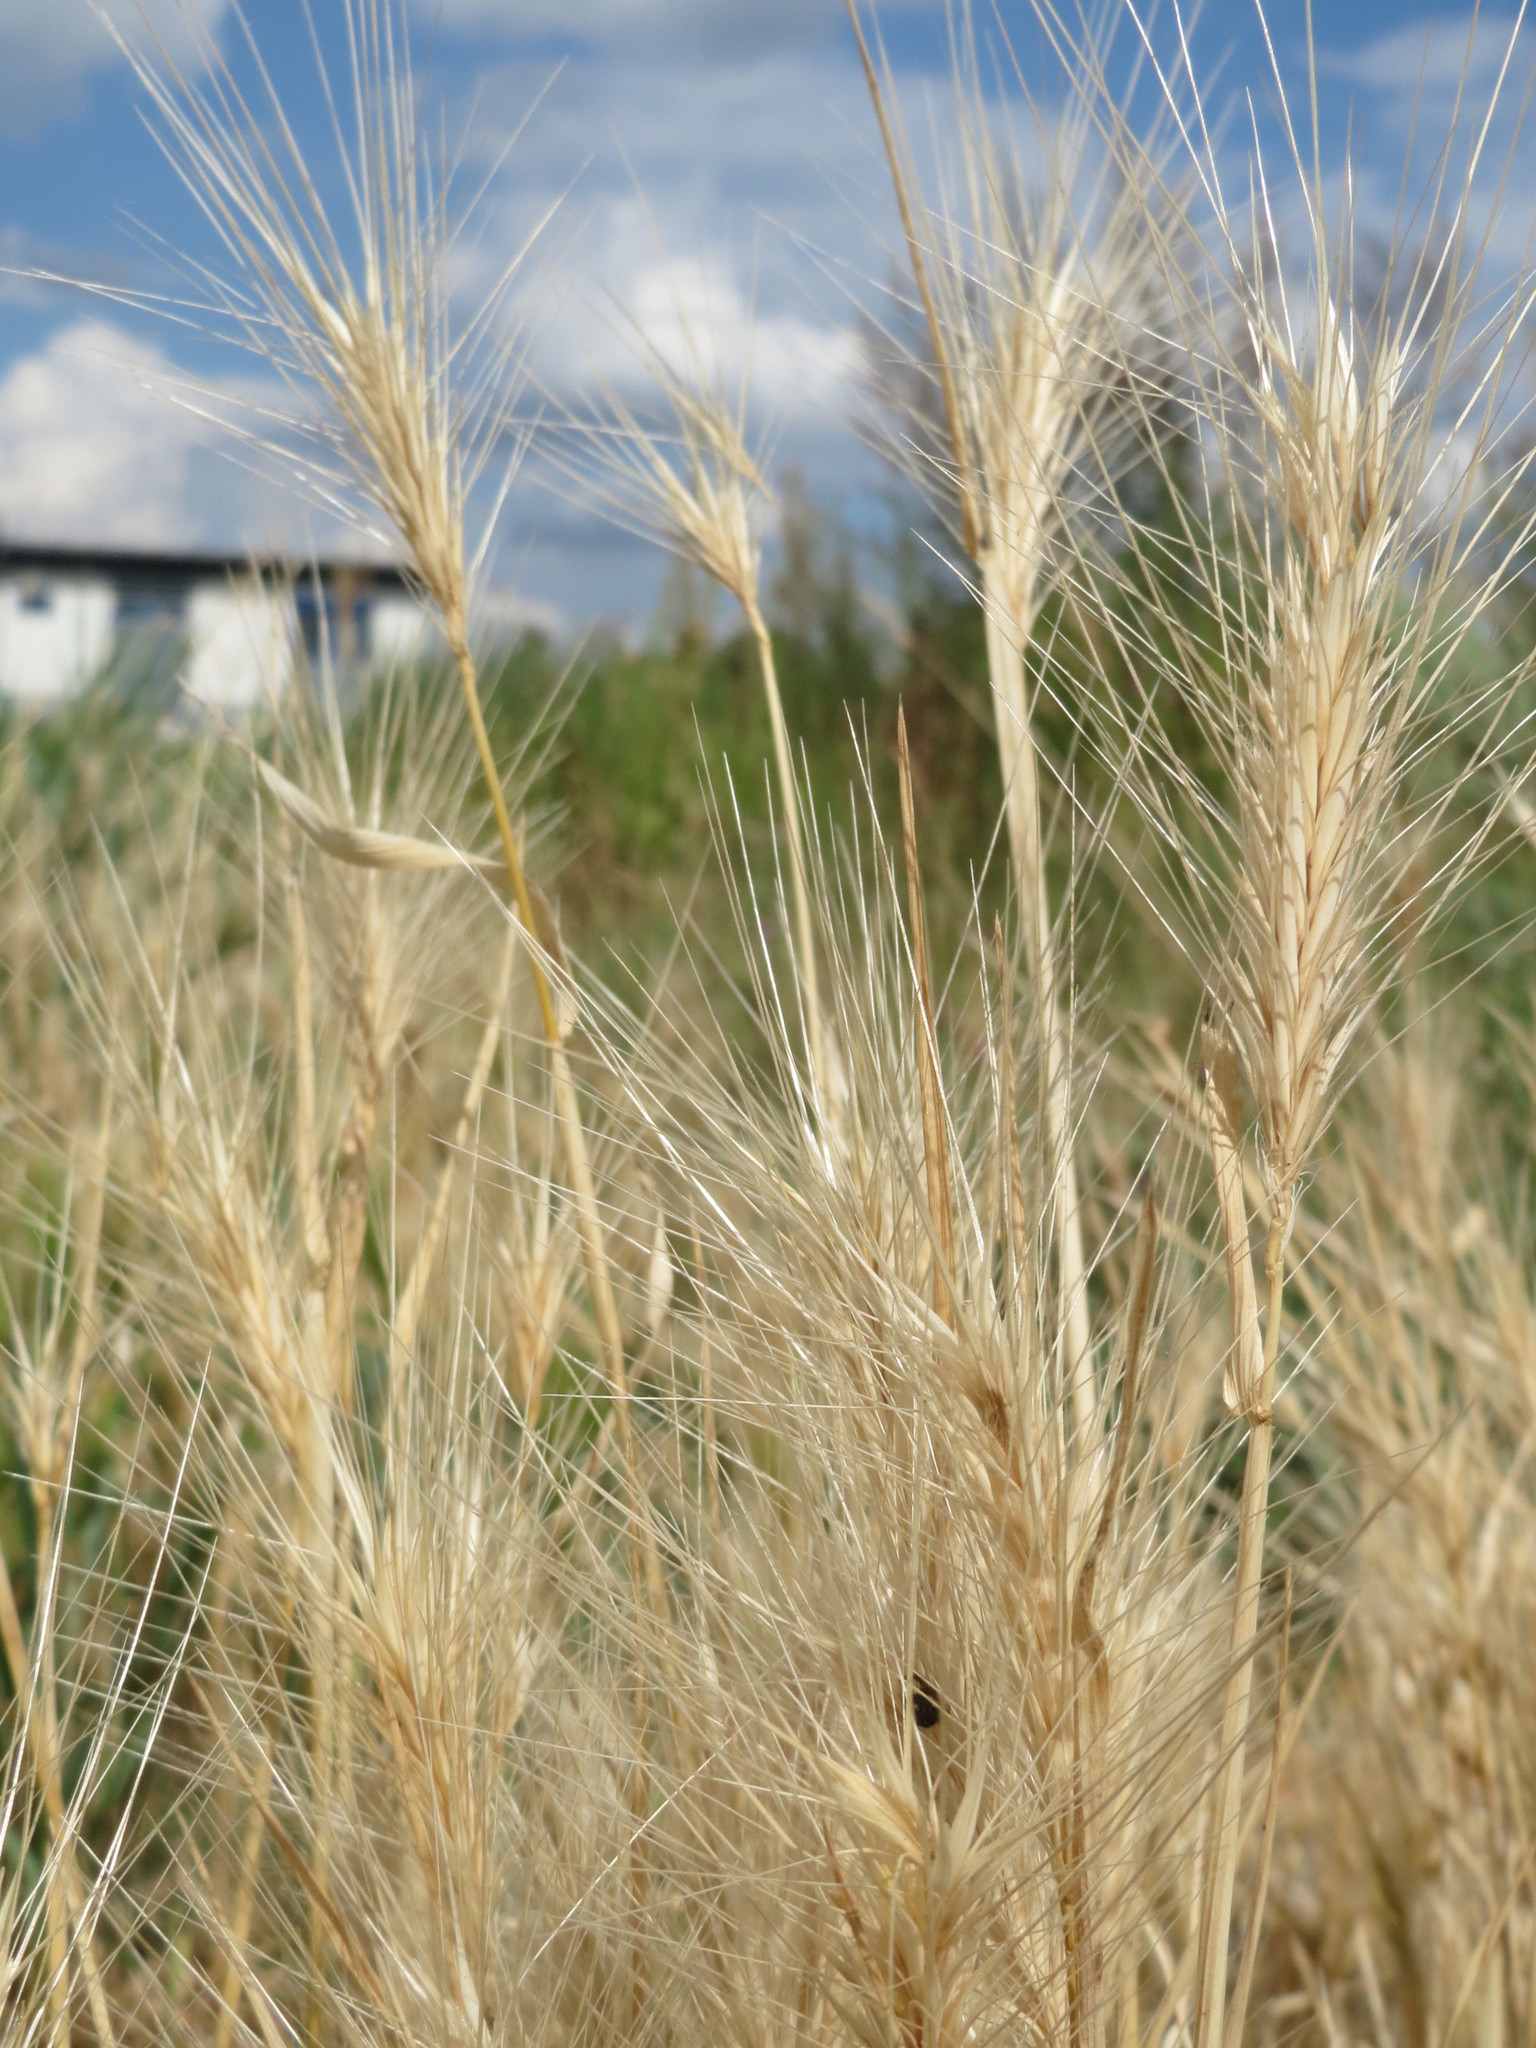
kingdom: Plantae
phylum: Tracheophyta
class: Liliopsida
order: Poales
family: Poaceae
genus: Hordeum
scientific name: Hordeum murinum
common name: Wall barley
